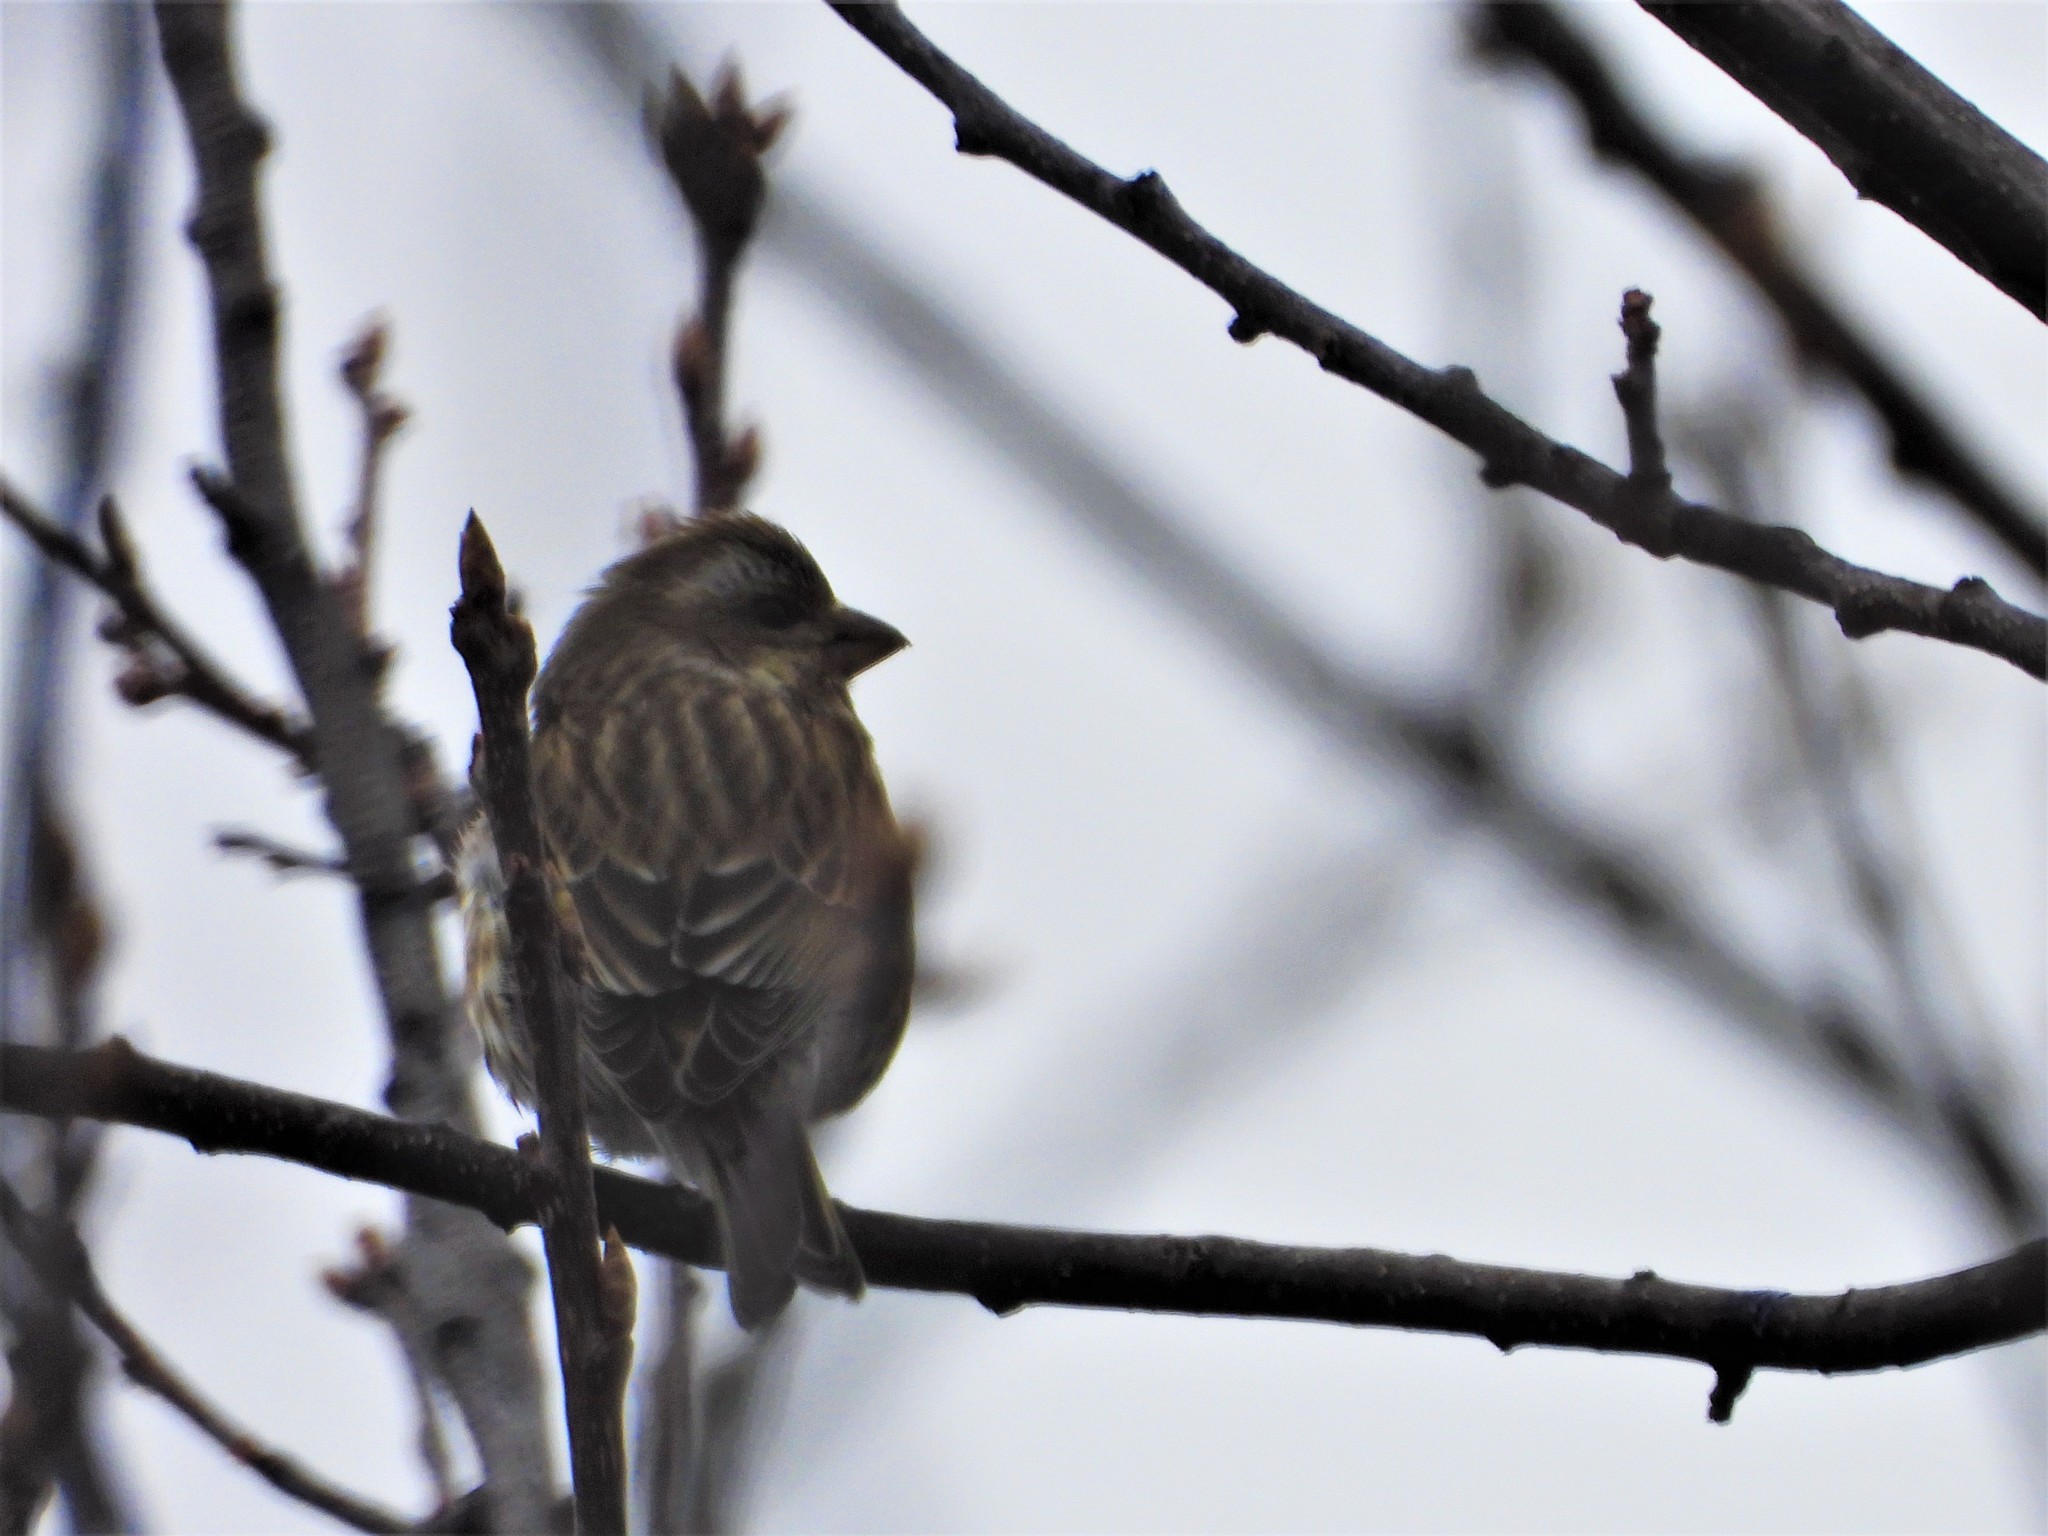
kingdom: Animalia
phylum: Chordata
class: Aves
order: Passeriformes
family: Fringillidae
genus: Haemorhous
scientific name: Haemorhous purpureus
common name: Purple finch
